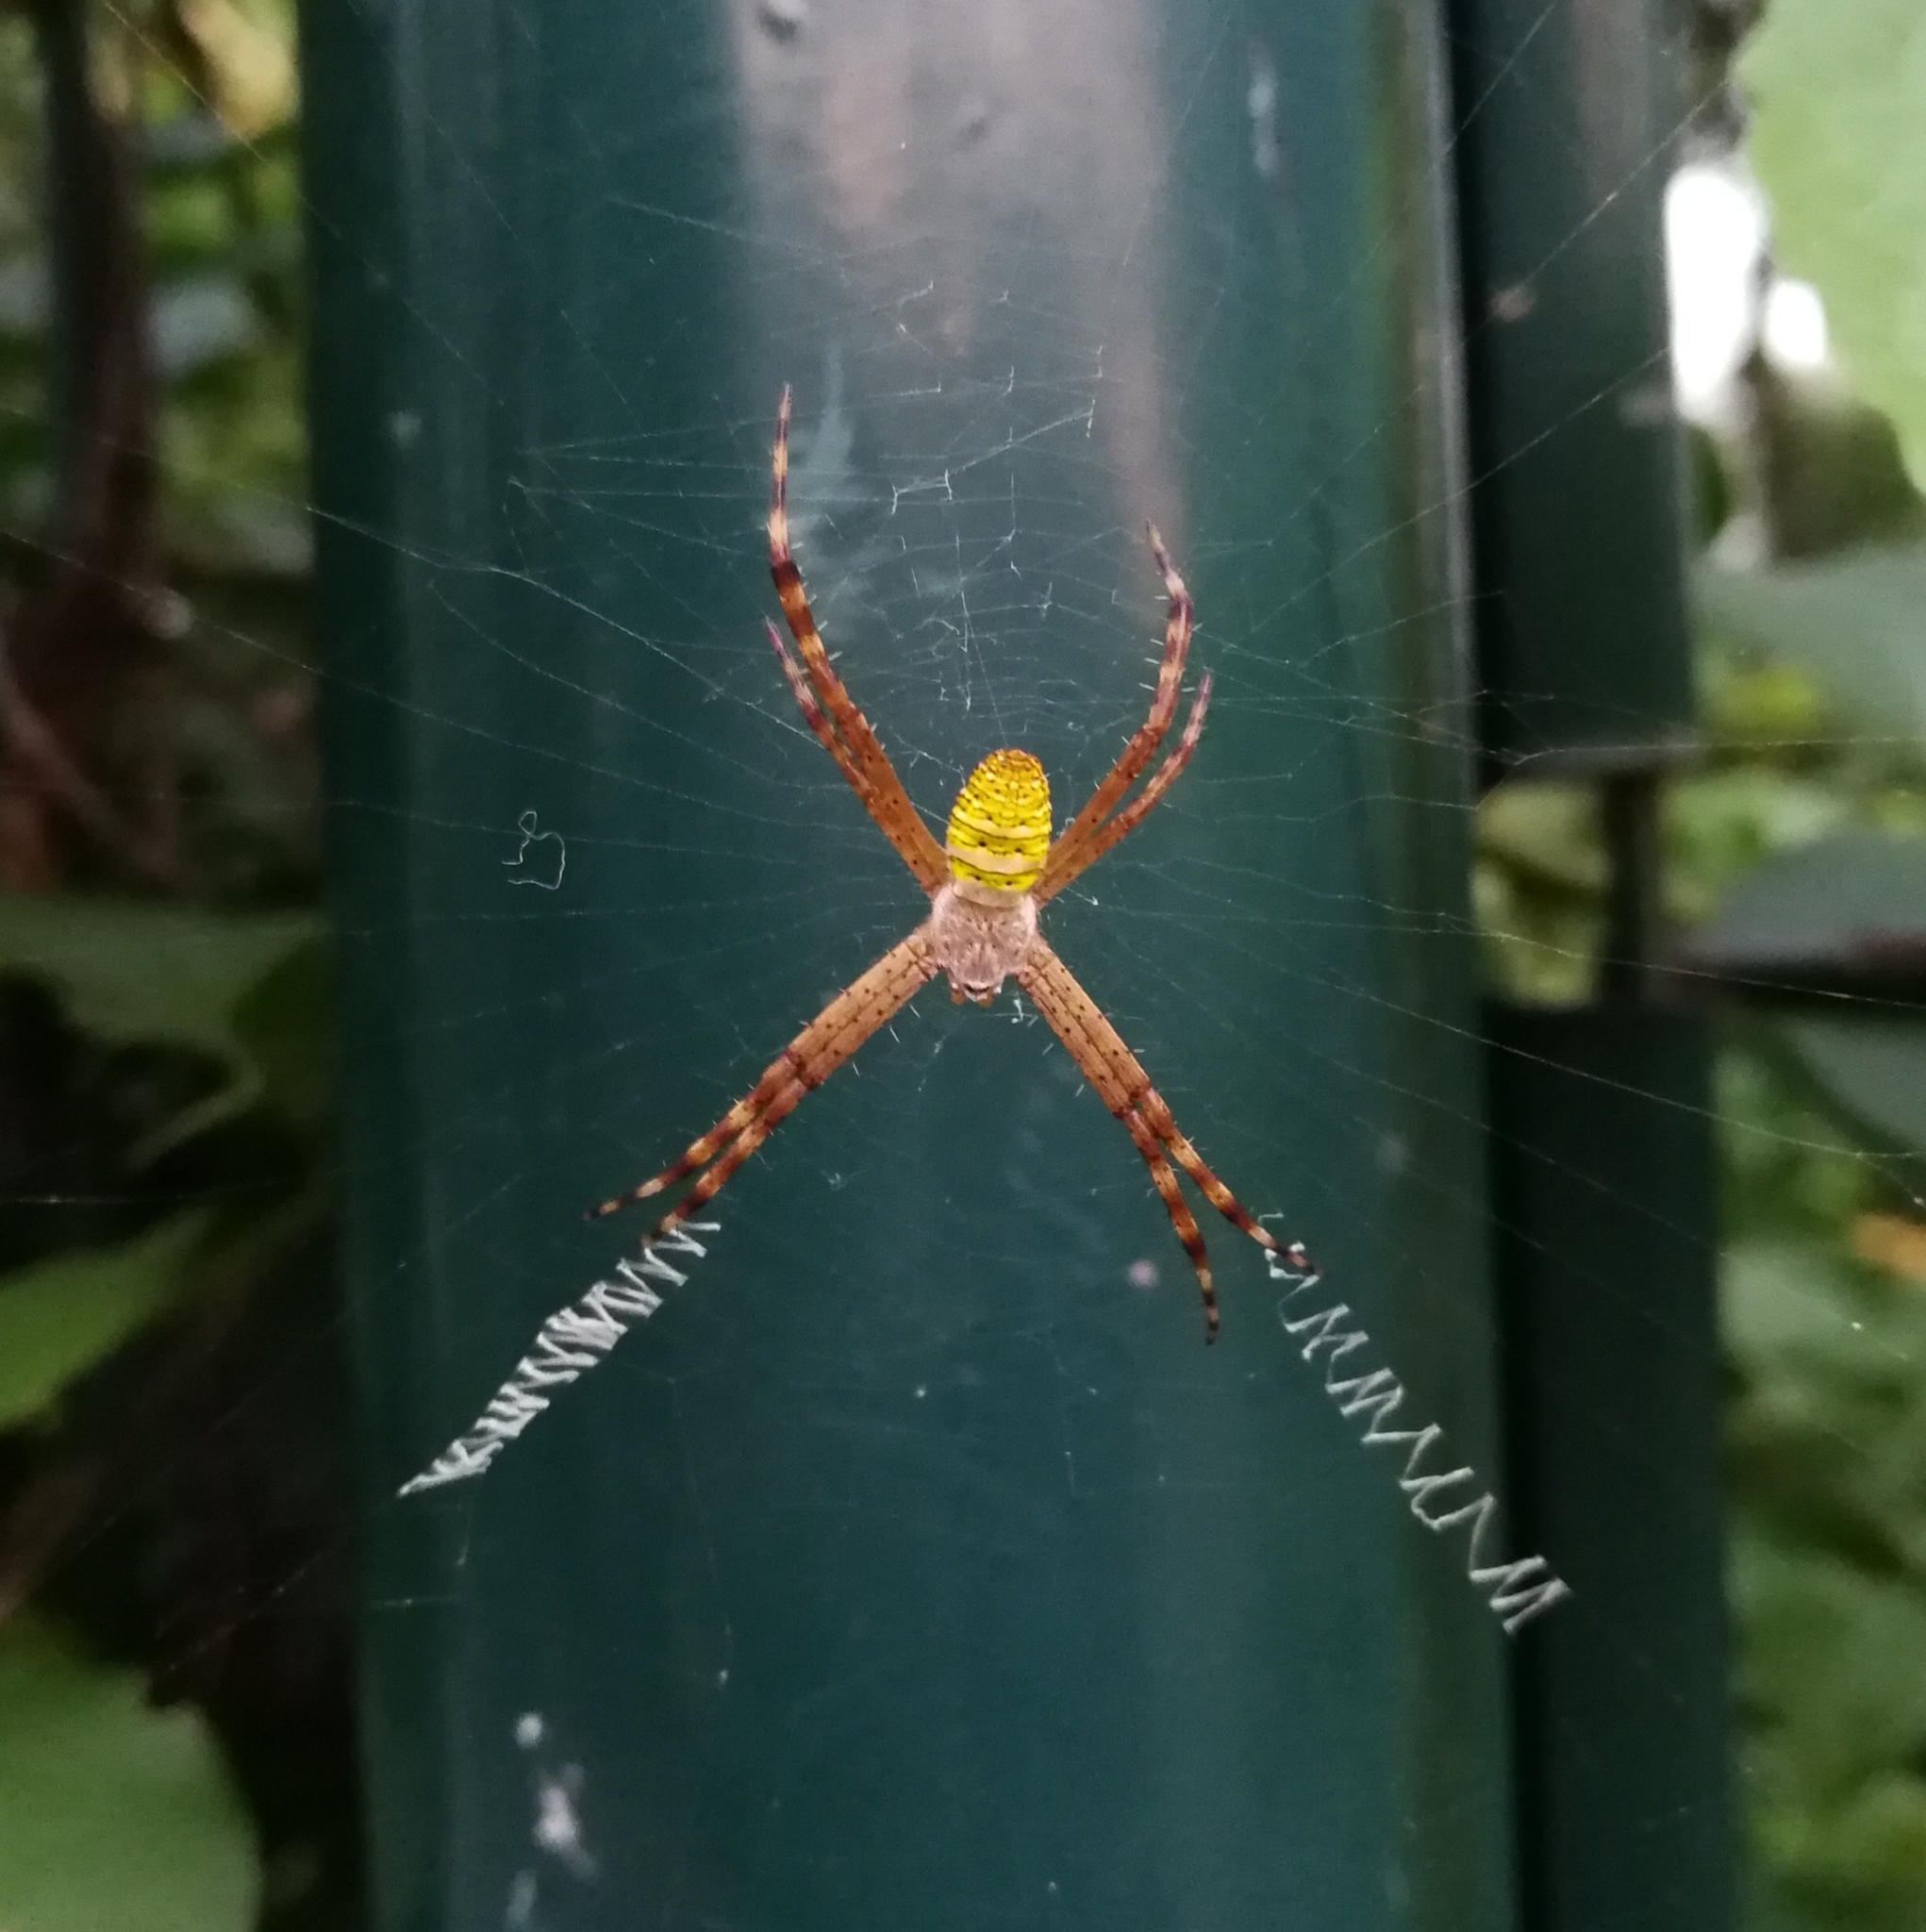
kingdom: Animalia
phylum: Arthropoda
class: Arachnida
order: Araneae
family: Araneidae
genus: Argiope
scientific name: Argiope aemula
